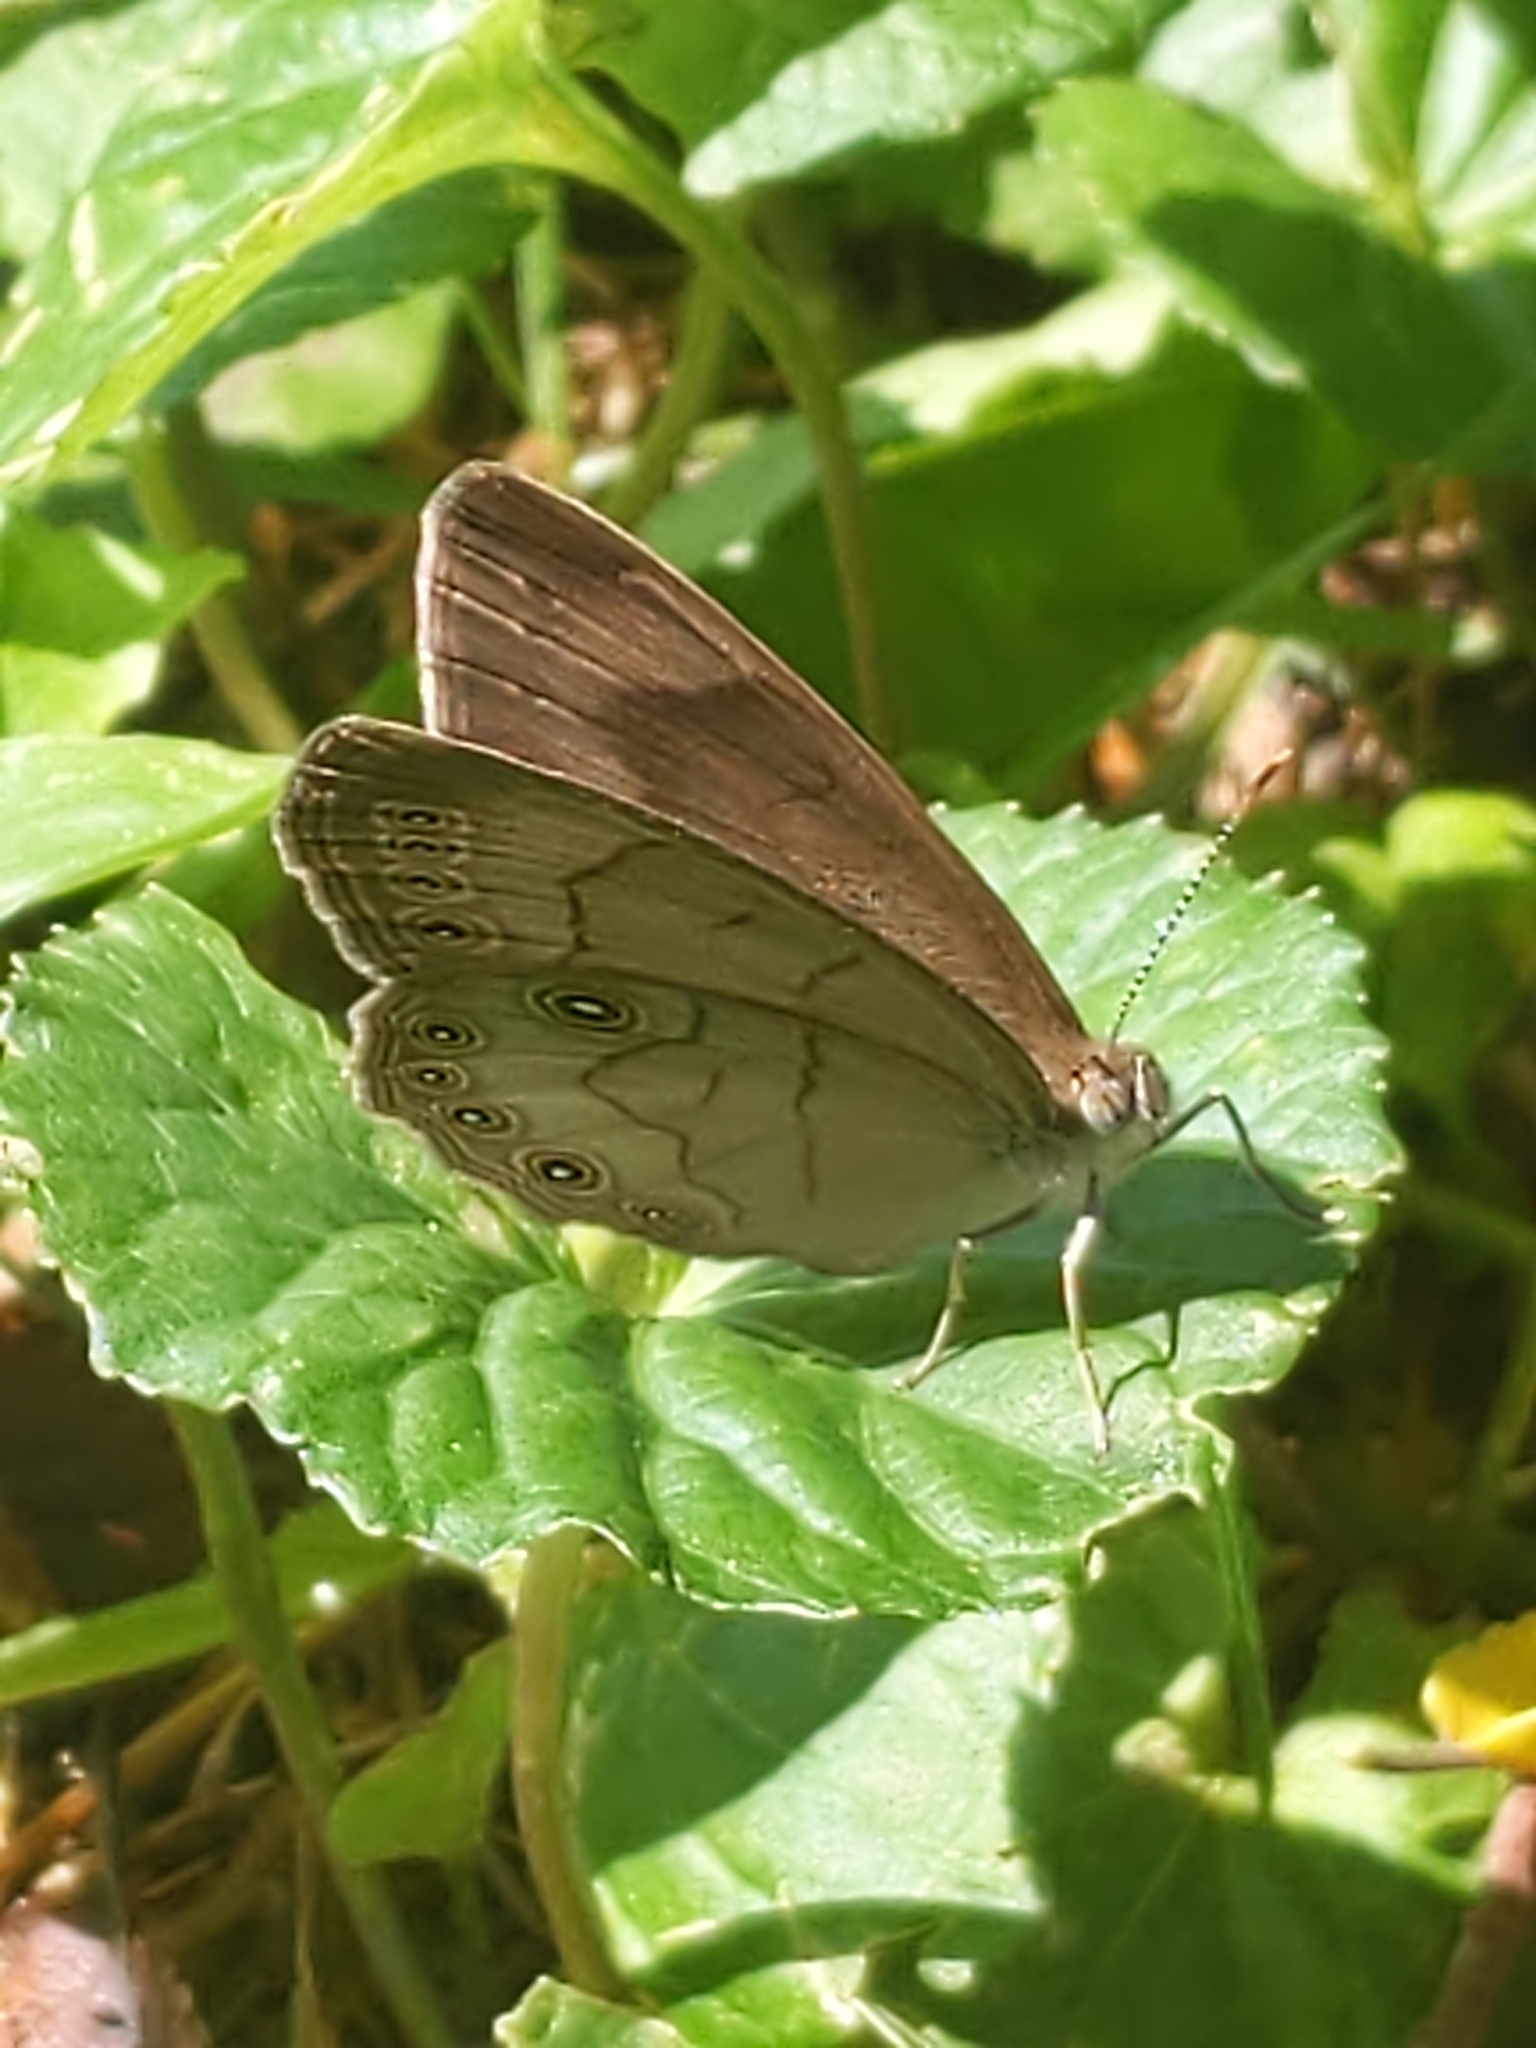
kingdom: Animalia
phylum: Arthropoda
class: Insecta
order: Lepidoptera
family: Nymphalidae
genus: Lethe
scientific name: Lethe eurydice
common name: Eyed brown
